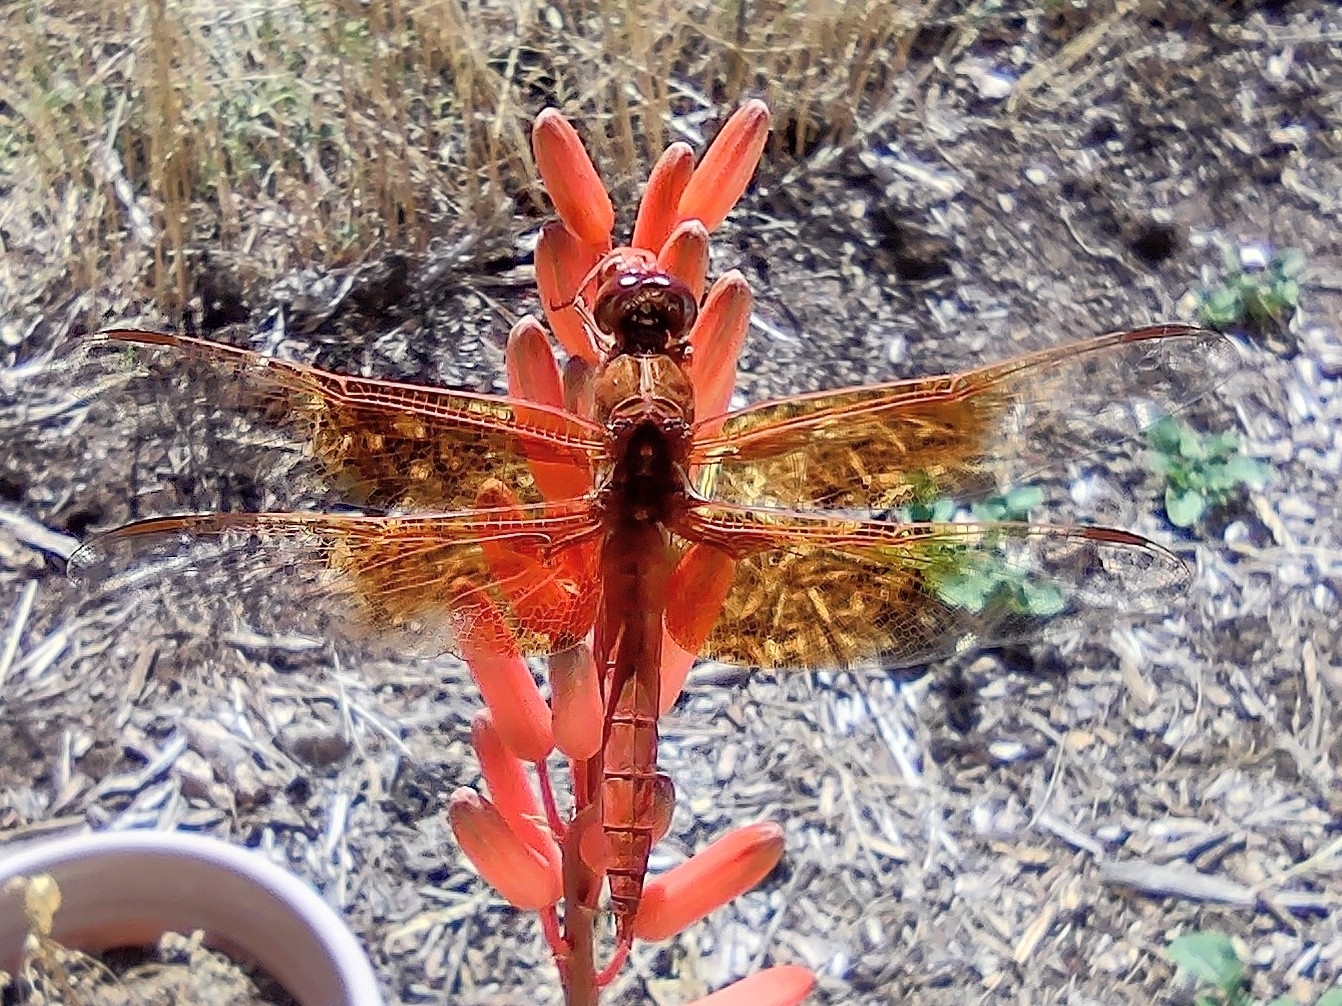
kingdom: Animalia
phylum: Arthropoda
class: Insecta
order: Odonata
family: Libellulidae
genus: Libellula
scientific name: Libellula saturata
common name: Flame skimmer
